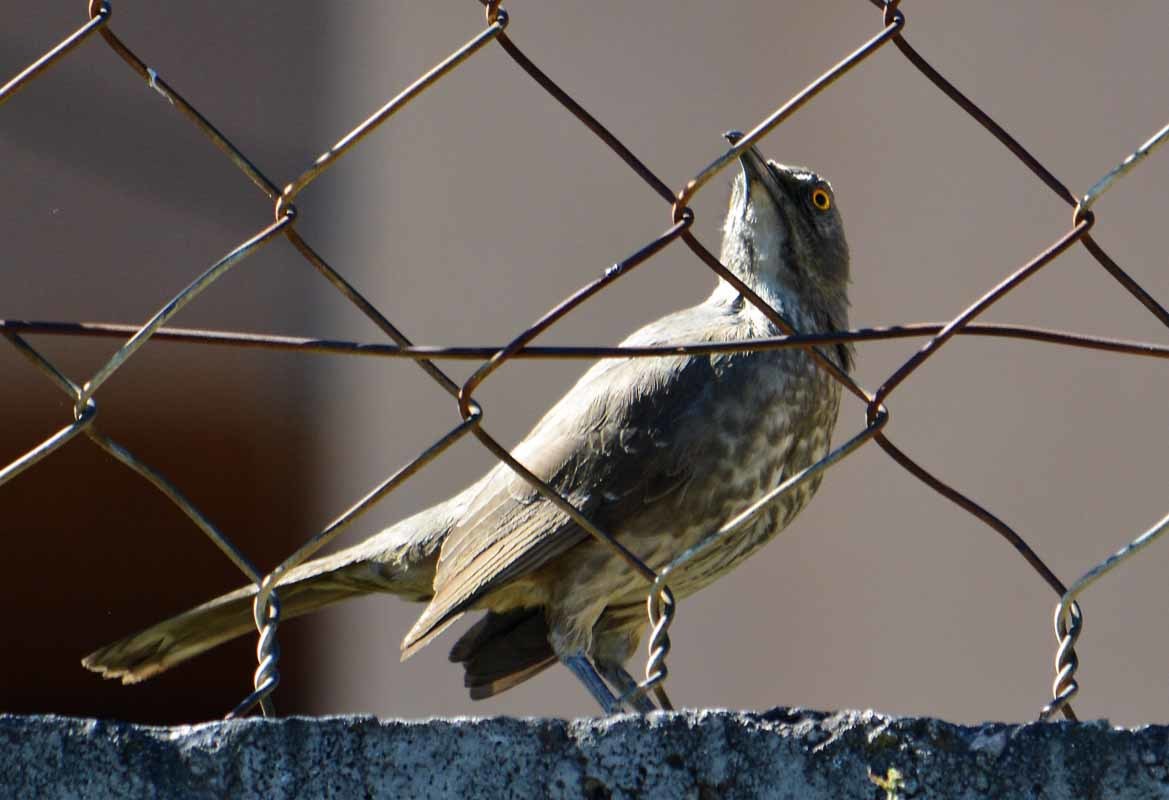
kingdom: Animalia
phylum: Chordata
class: Aves
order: Passeriformes
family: Mimidae
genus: Toxostoma
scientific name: Toxostoma curvirostre
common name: Curve-billed thrasher
